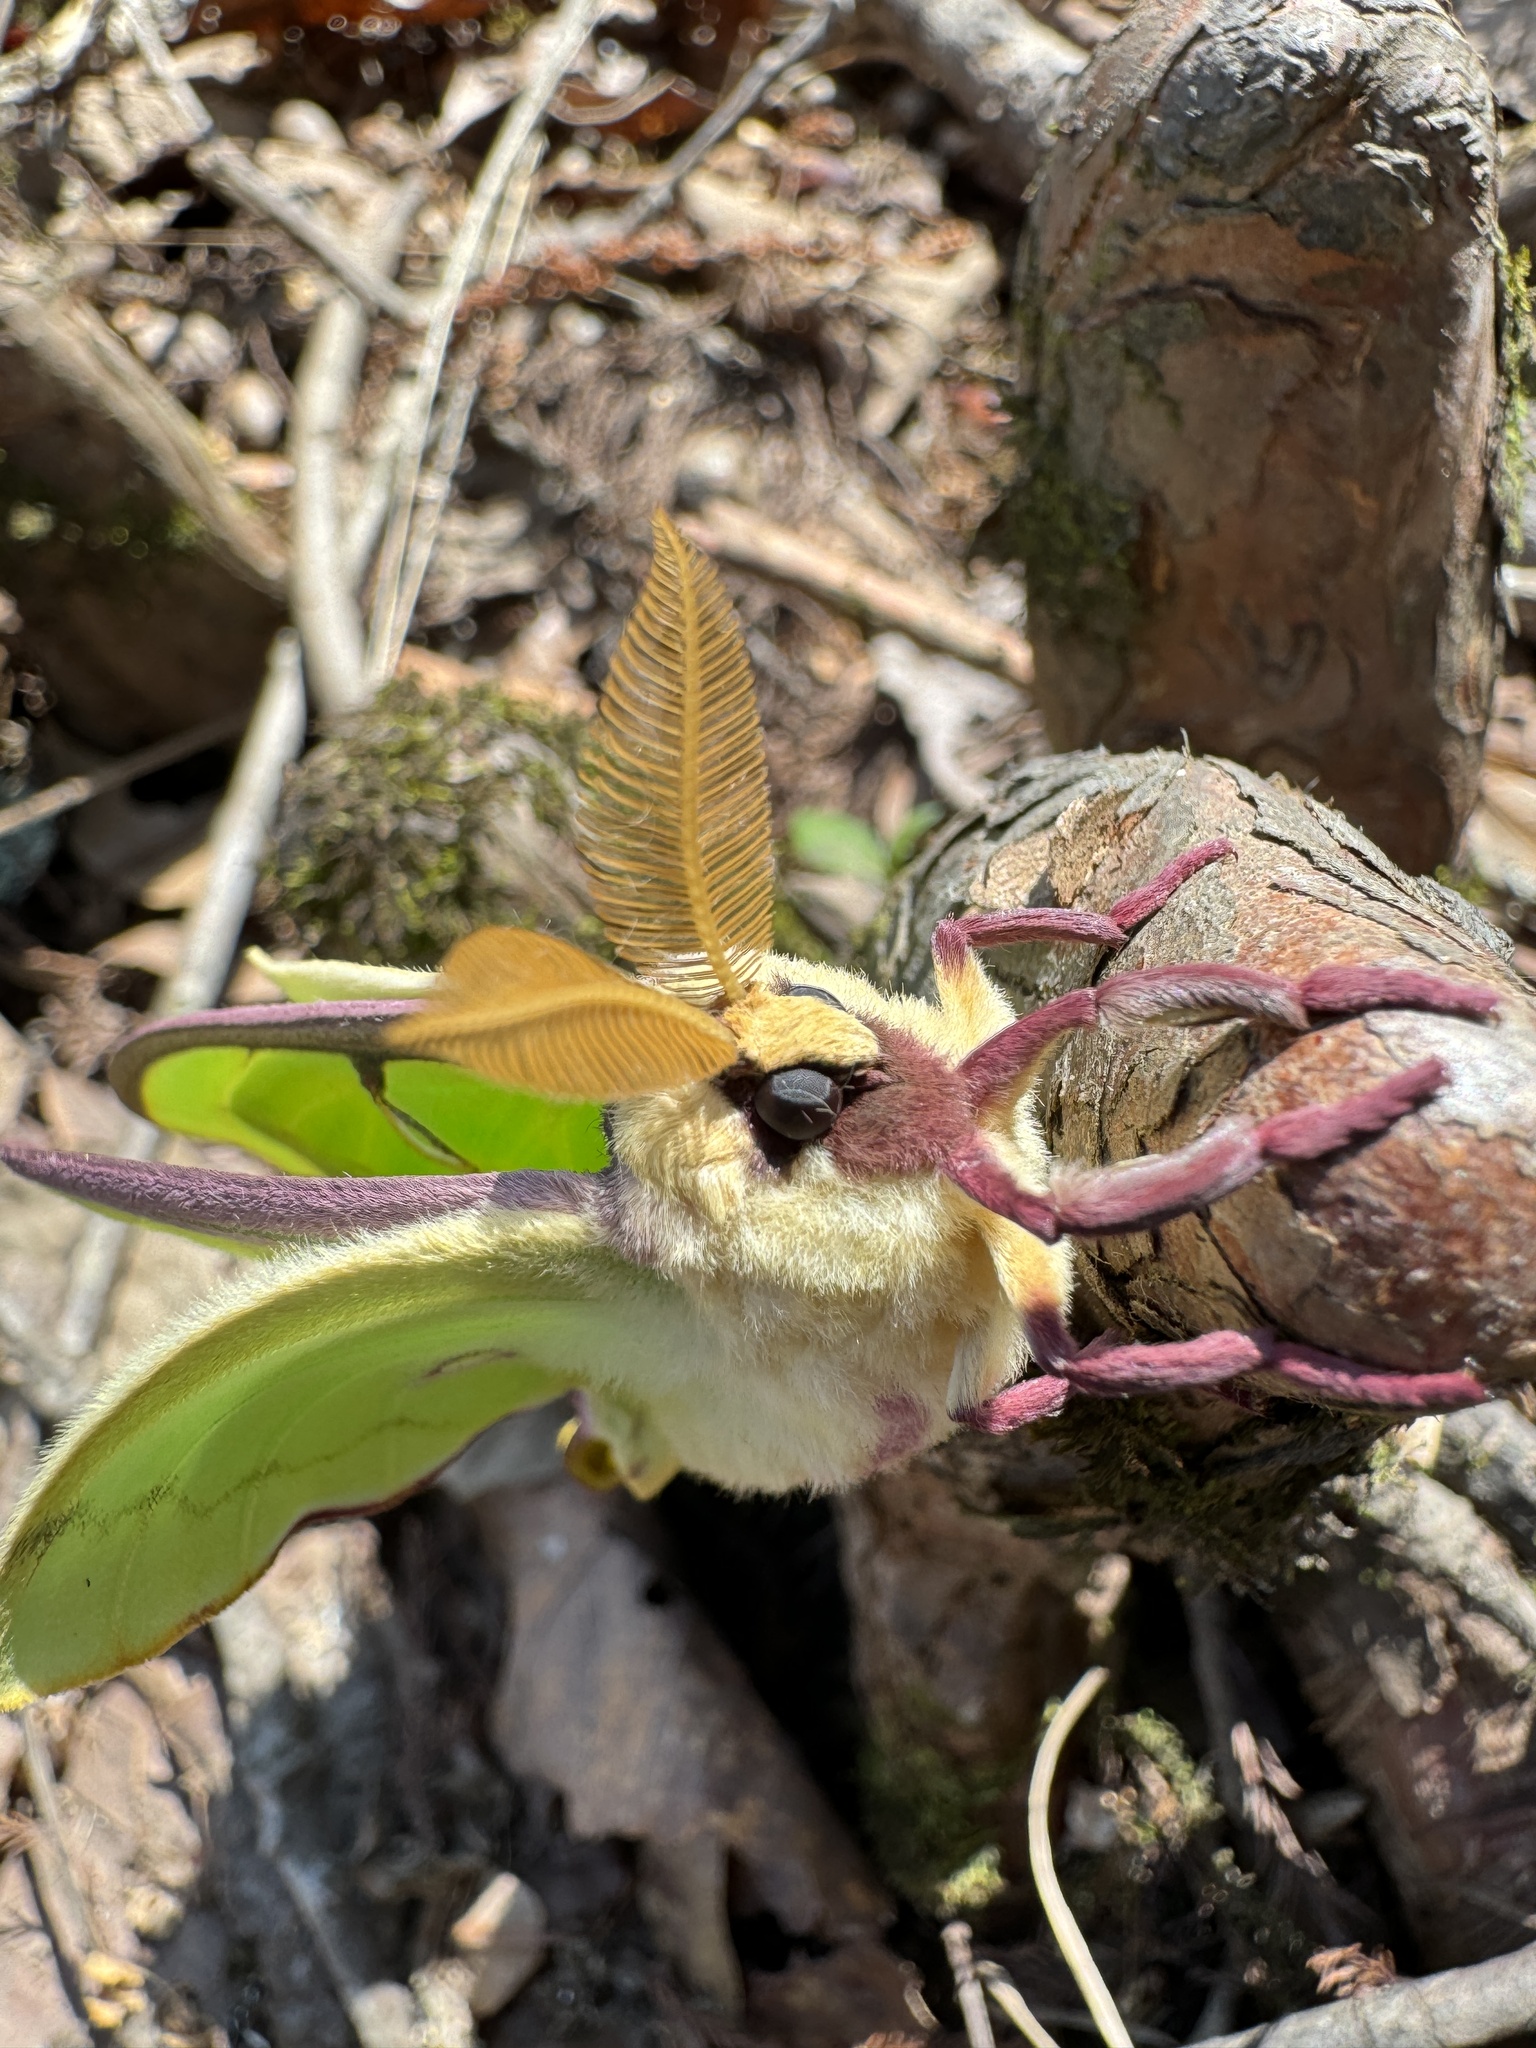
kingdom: Animalia
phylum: Arthropoda
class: Insecta
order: Lepidoptera
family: Saturniidae
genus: Actias
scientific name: Actias luna
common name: Luna moth
